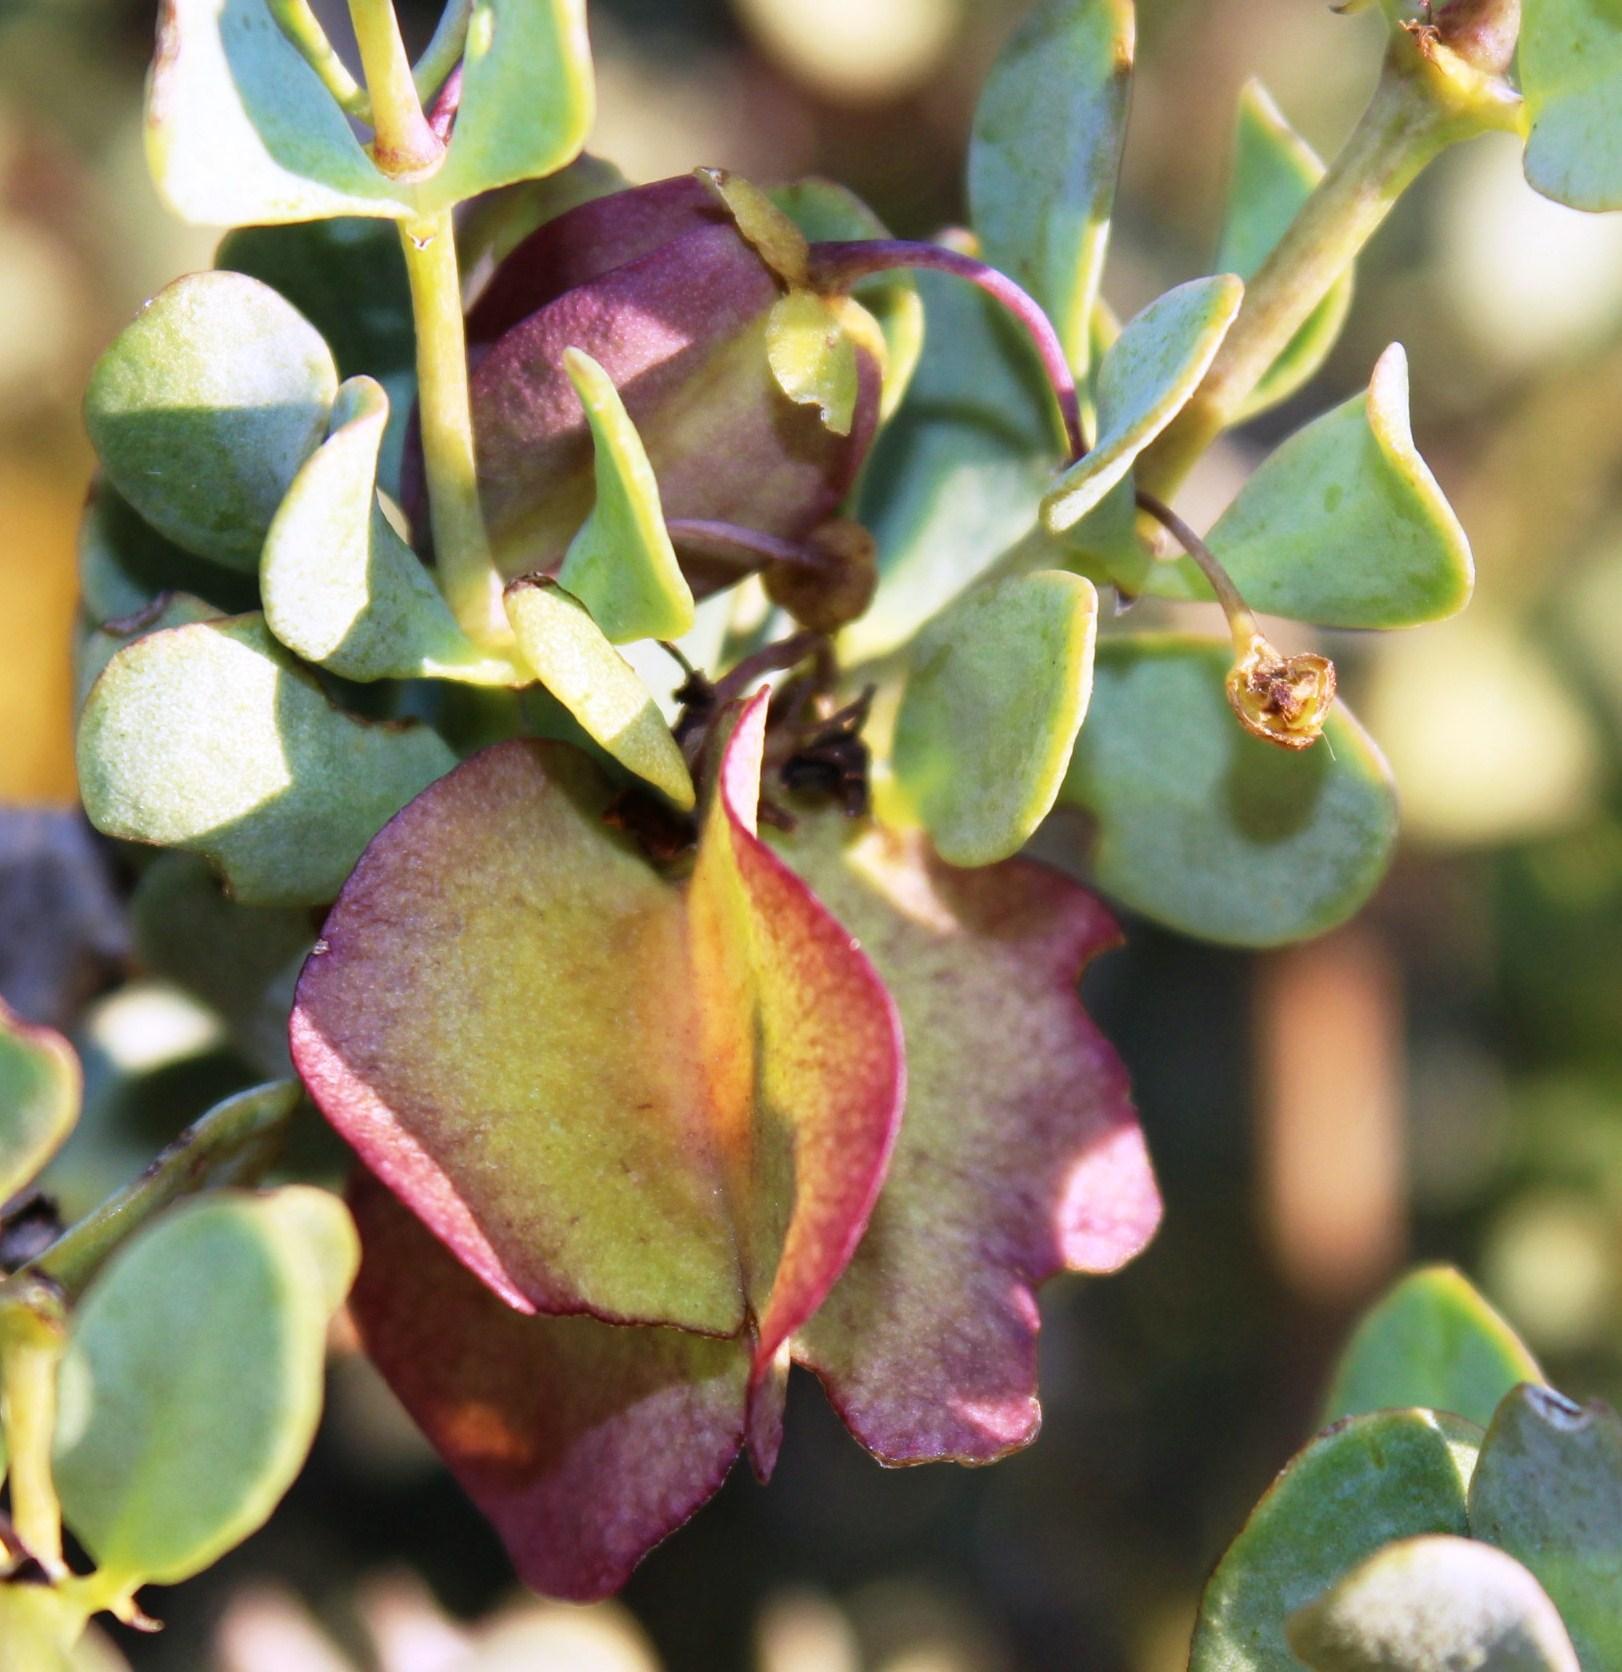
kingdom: Plantae
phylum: Tracheophyta
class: Magnoliopsida
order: Zygophyllales
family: Zygophyllaceae
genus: Roepera
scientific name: Roepera morgsana
